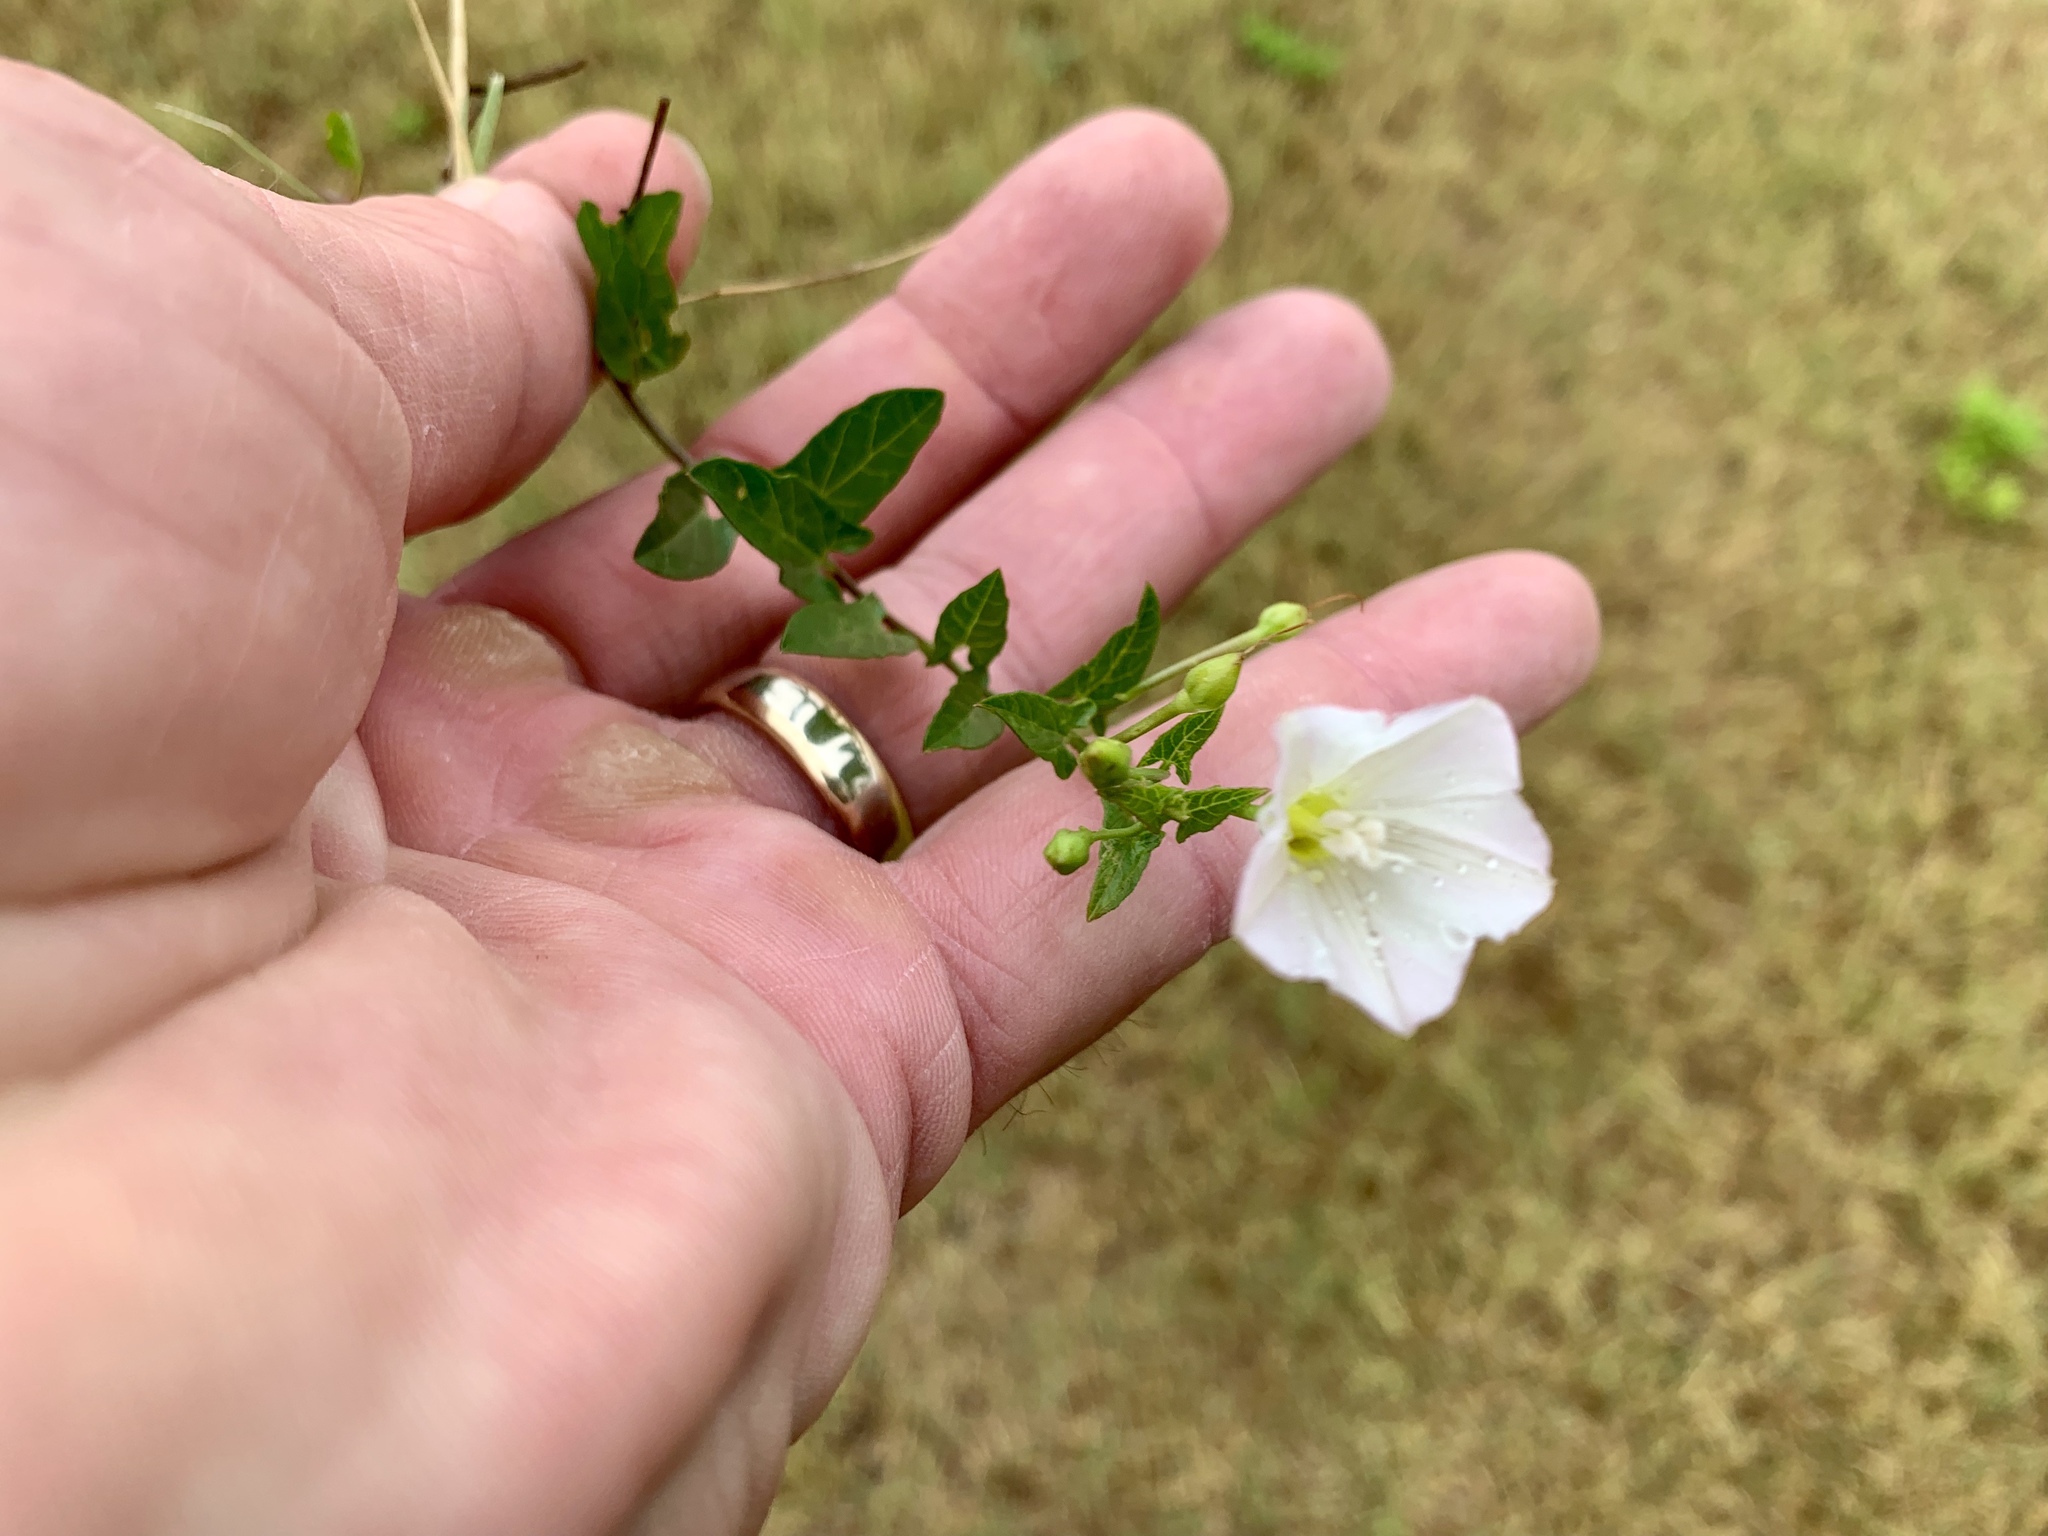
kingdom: Plantae
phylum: Tracheophyta
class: Magnoliopsida
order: Solanales
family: Convolvulaceae
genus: Convolvulus
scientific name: Convolvulus arvensis
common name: Field bindweed
